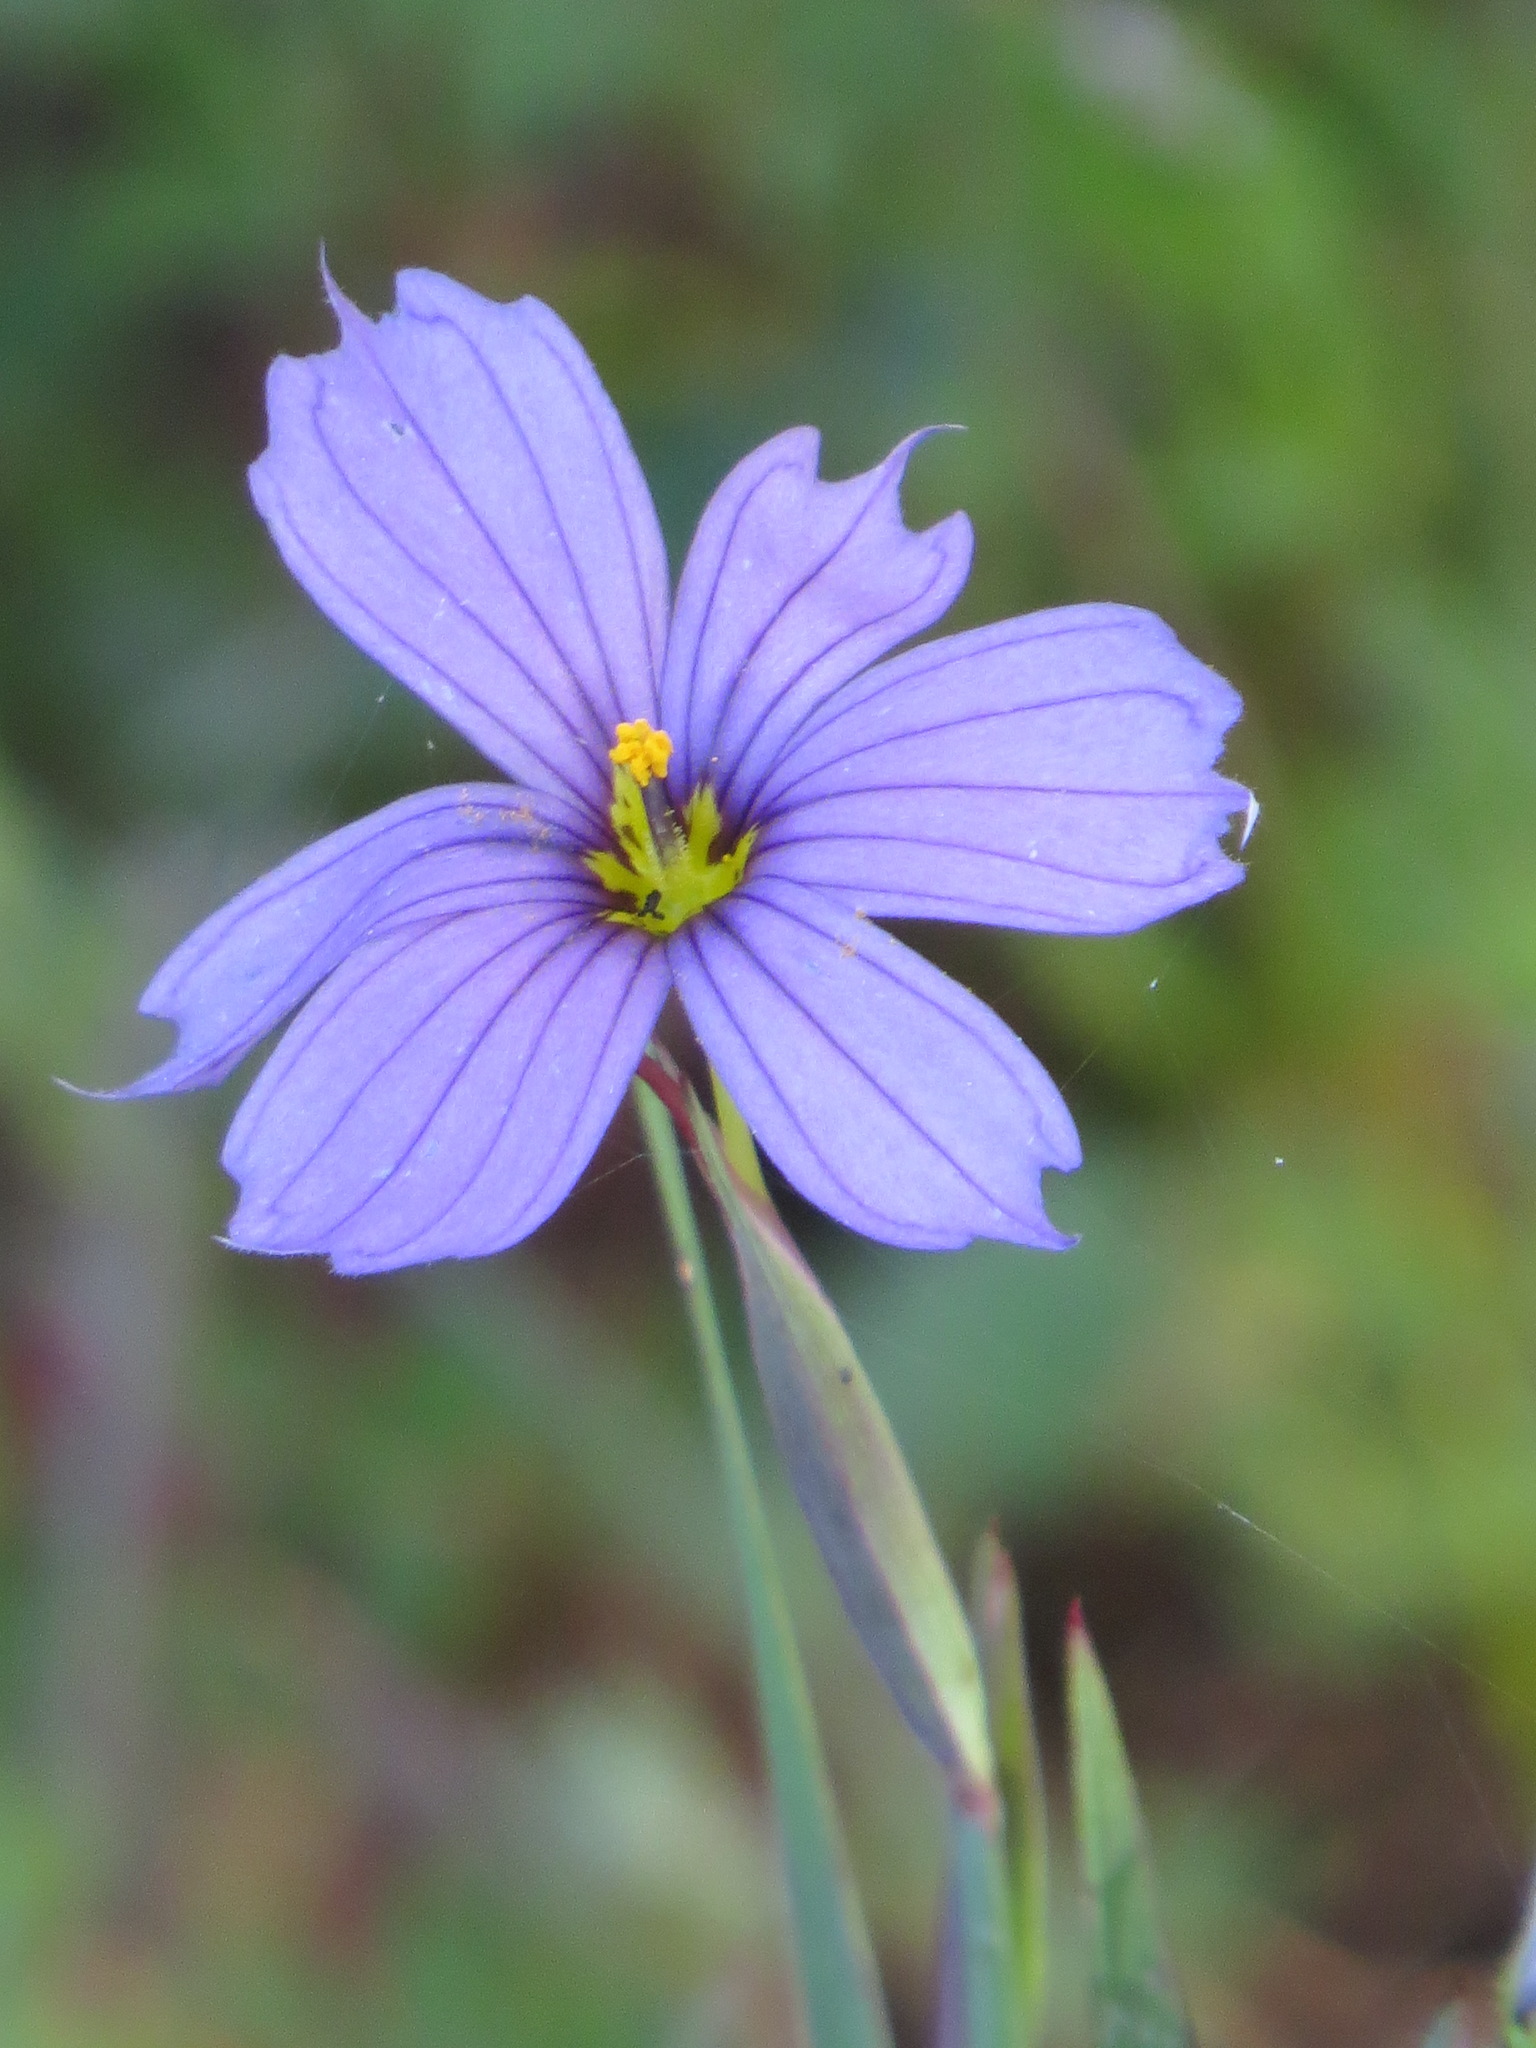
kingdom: Plantae
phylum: Tracheophyta
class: Liliopsida
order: Asparagales
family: Iridaceae
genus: Sisyrinchium
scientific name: Sisyrinchium bellum
